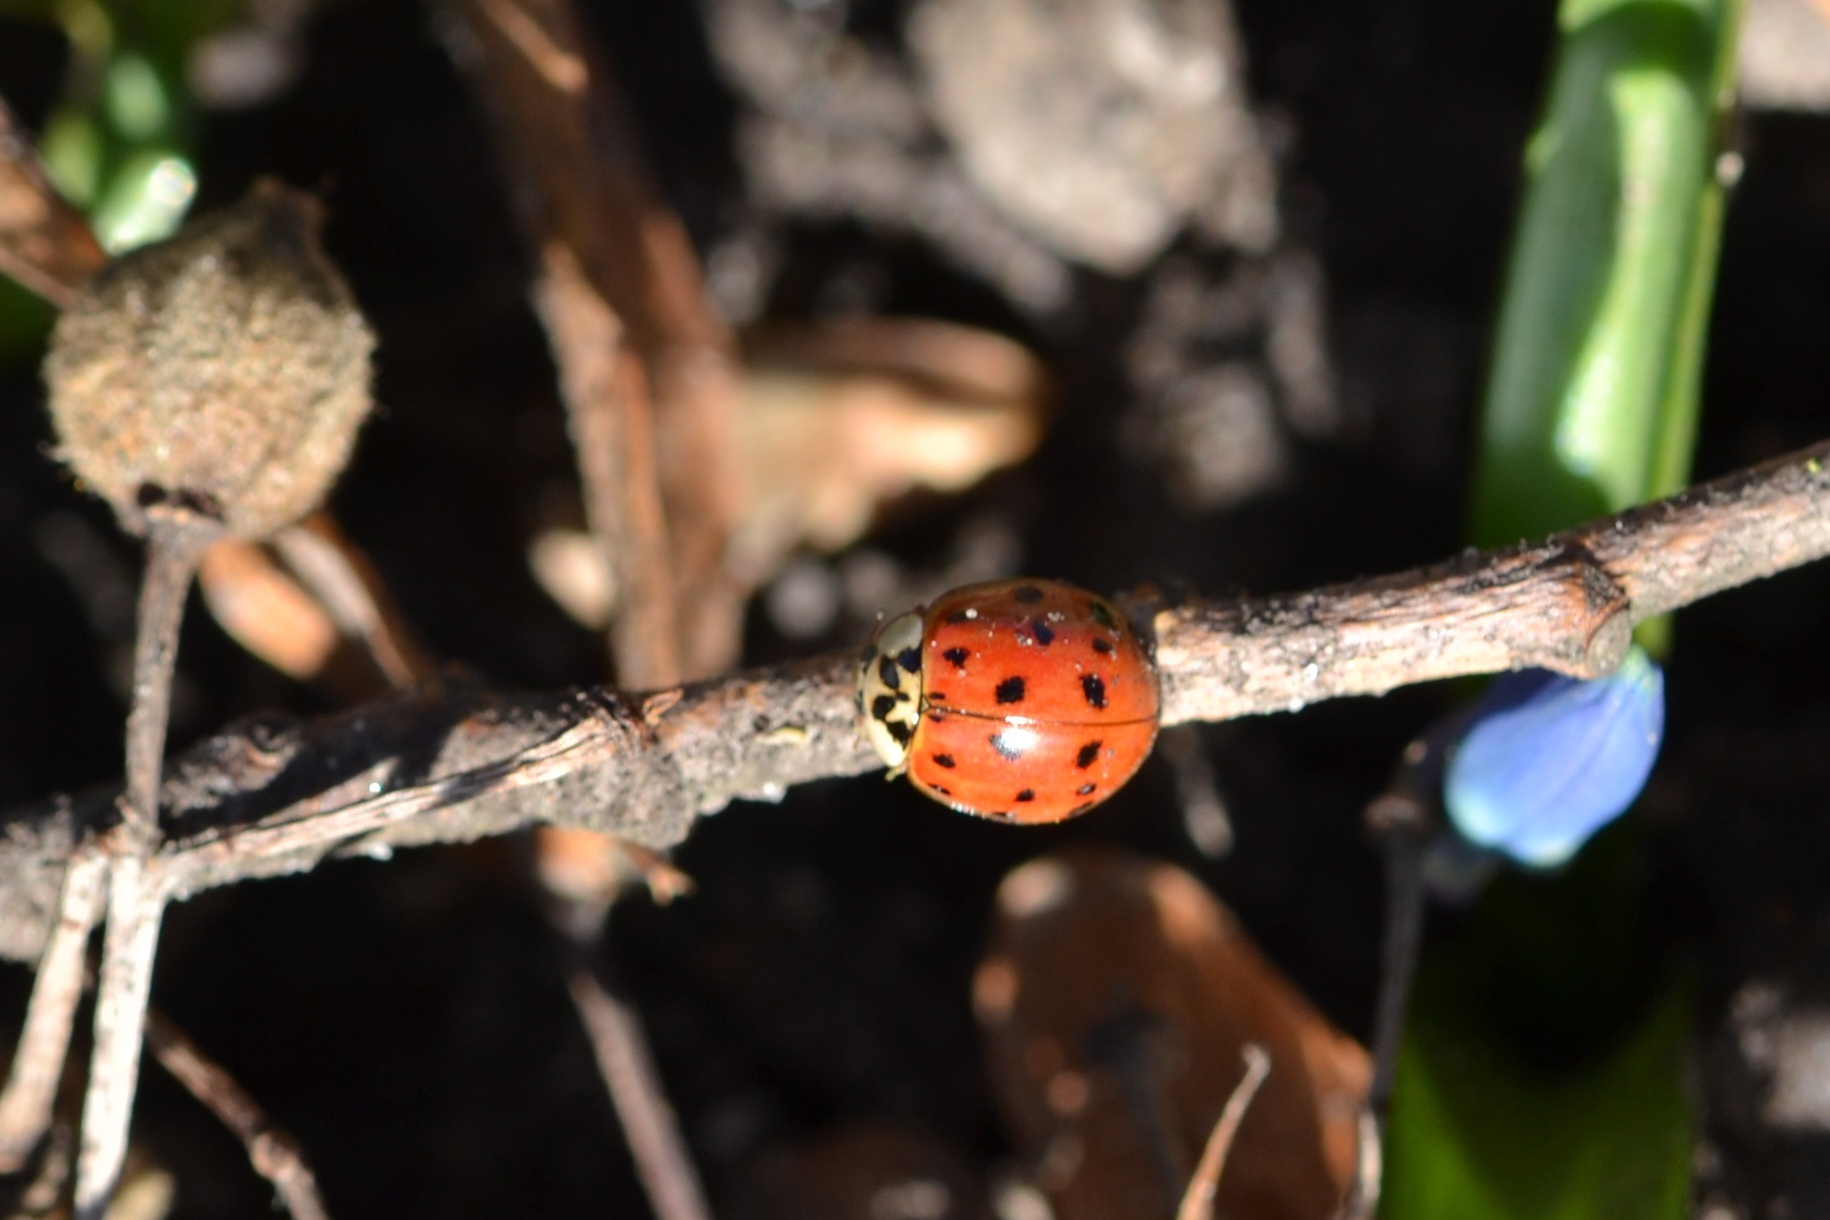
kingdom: Animalia
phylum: Arthropoda
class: Insecta
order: Coleoptera
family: Coccinellidae
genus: Harmonia
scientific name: Harmonia axyridis
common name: Harlequin ladybird
